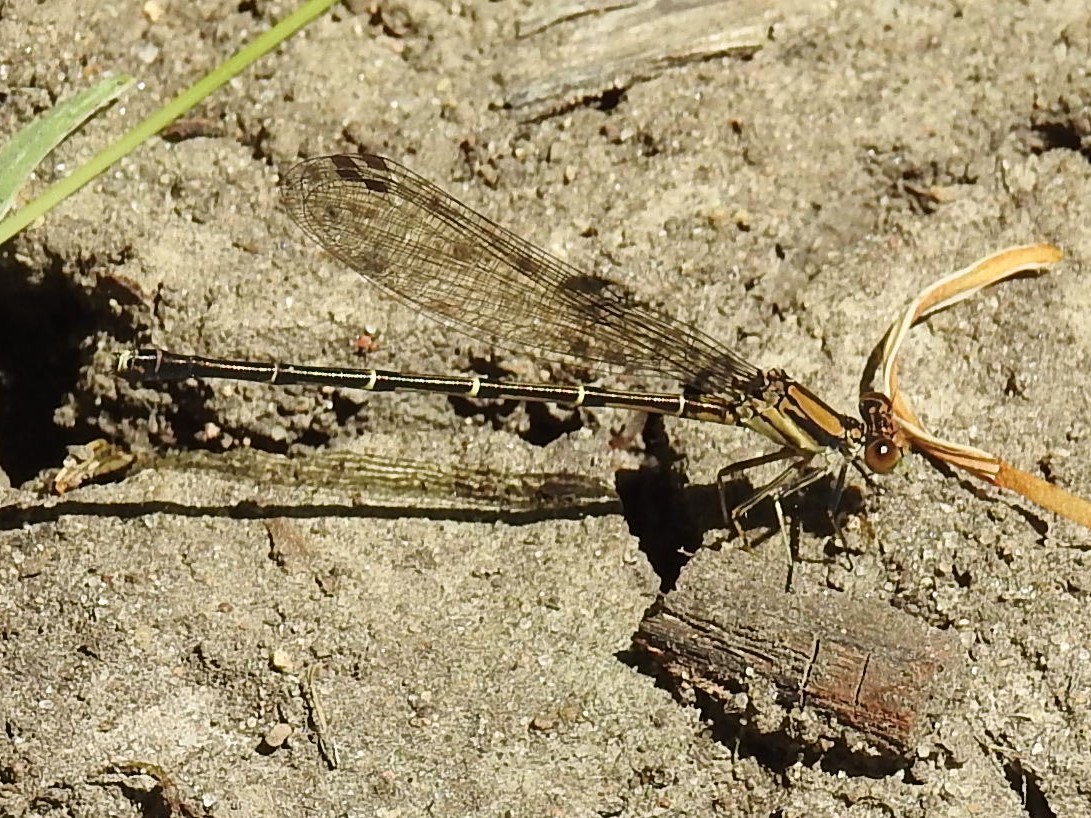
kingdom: Animalia
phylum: Arthropoda
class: Insecta
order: Odonata
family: Coenagrionidae
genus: Argia
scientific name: Argia tibialis
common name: Blue-tipped dancer
